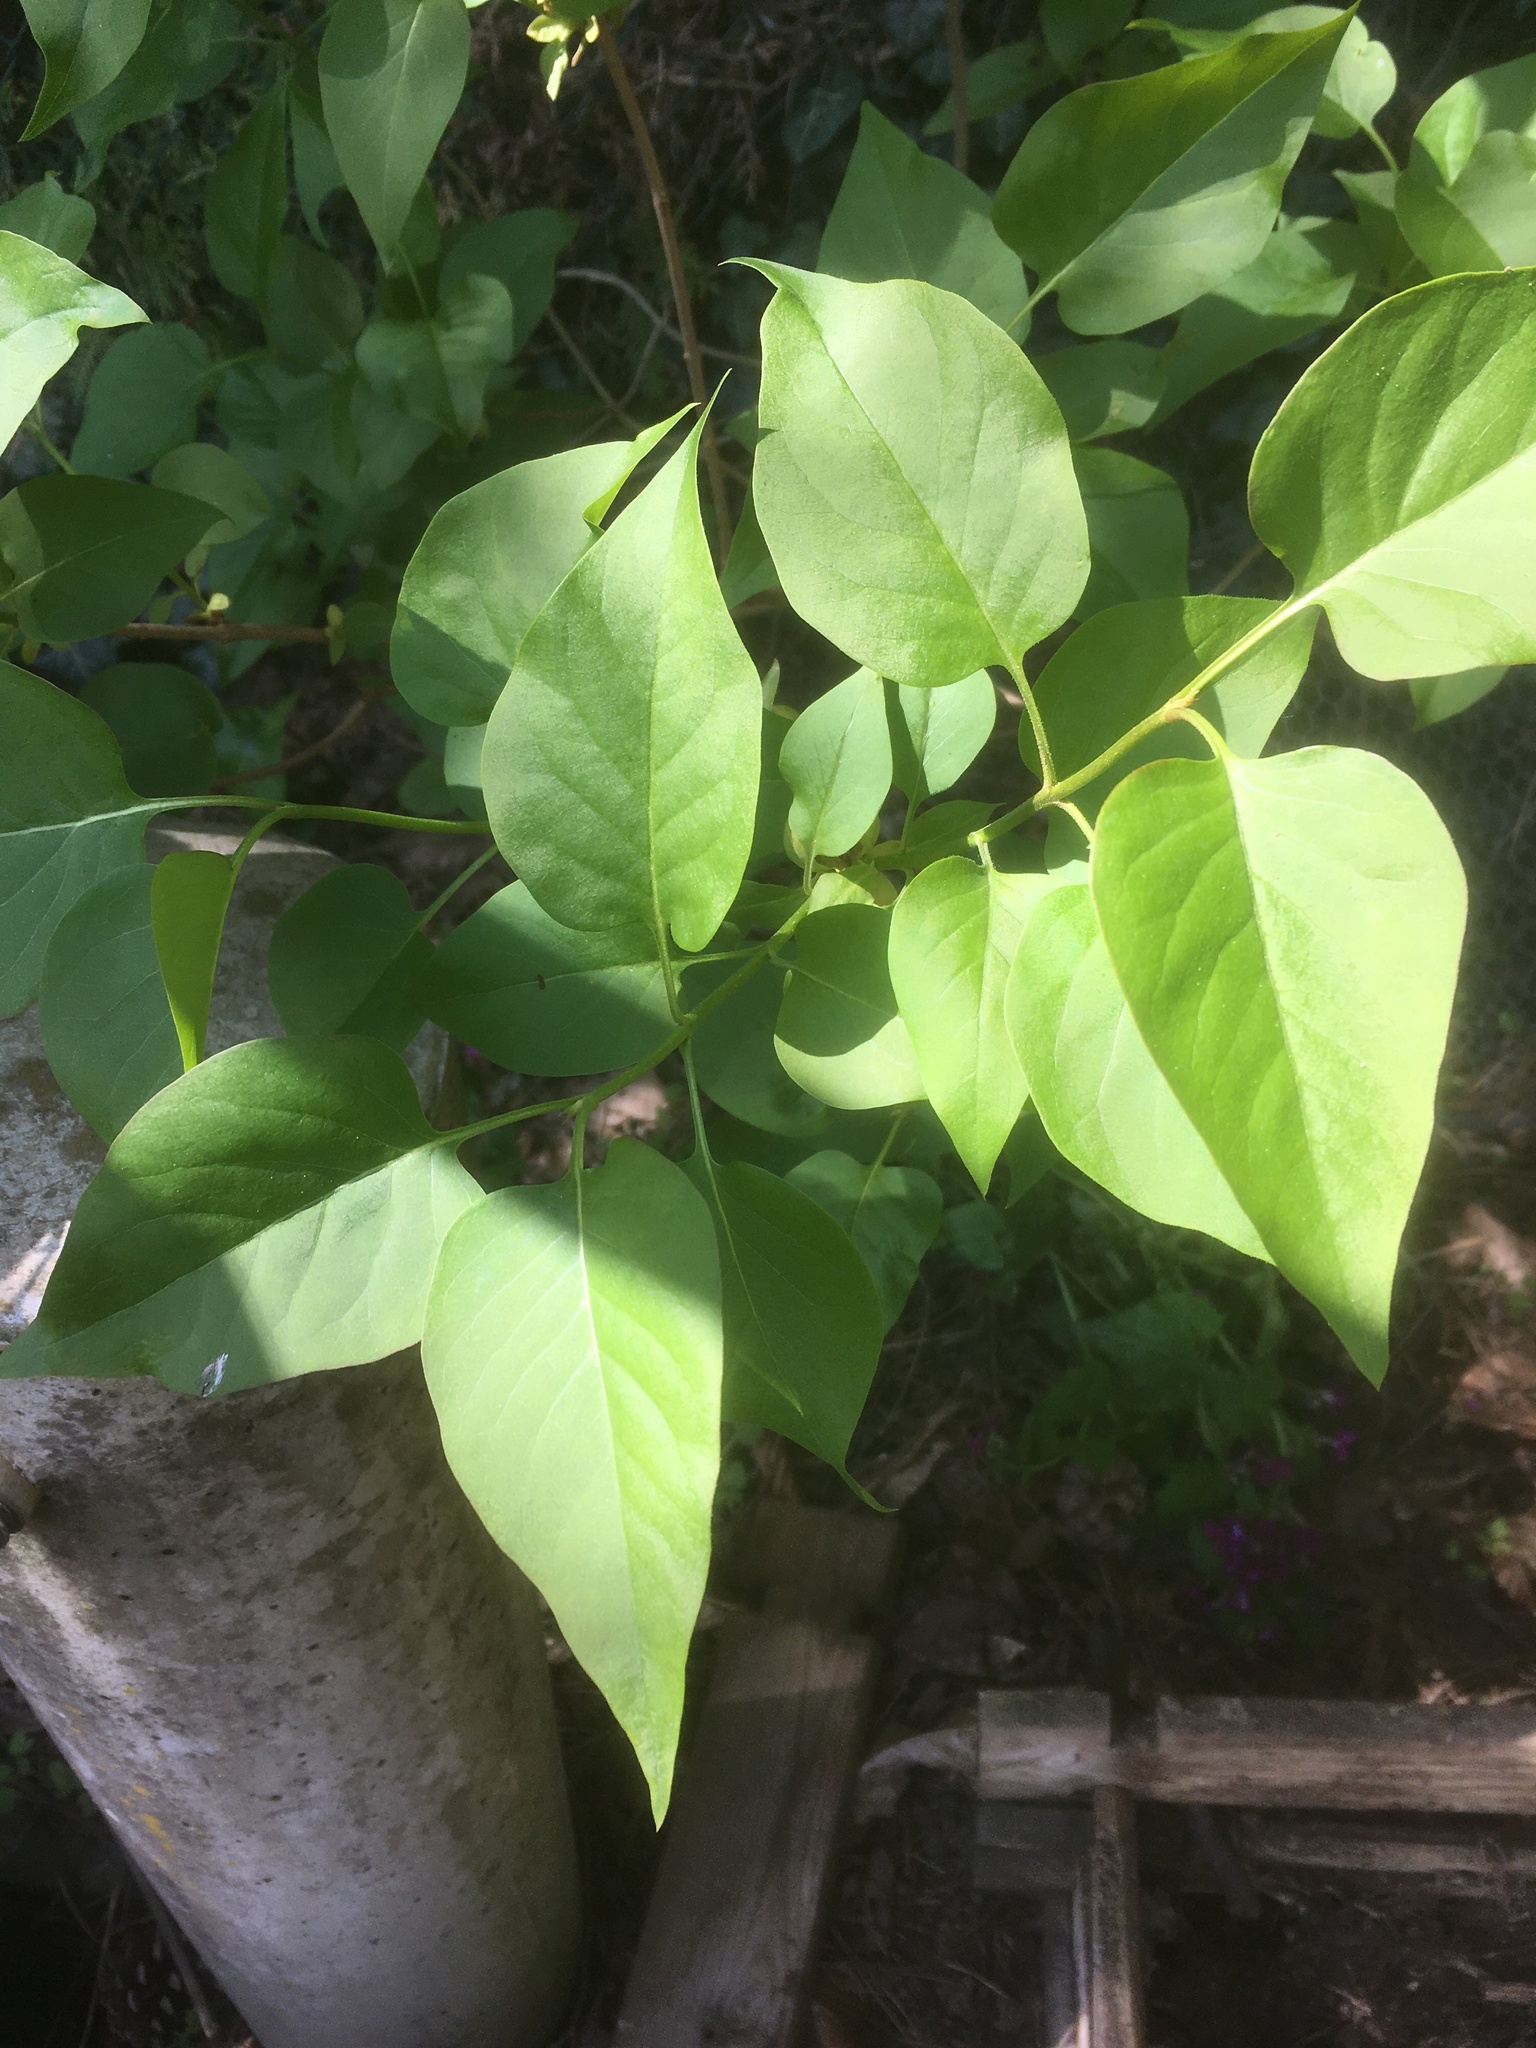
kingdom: Plantae
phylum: Tracheophyta
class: Magnoliopsida
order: Lamiales
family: Oleaceae
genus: Syringa
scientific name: Syringa vulgaris
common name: Common lilac
